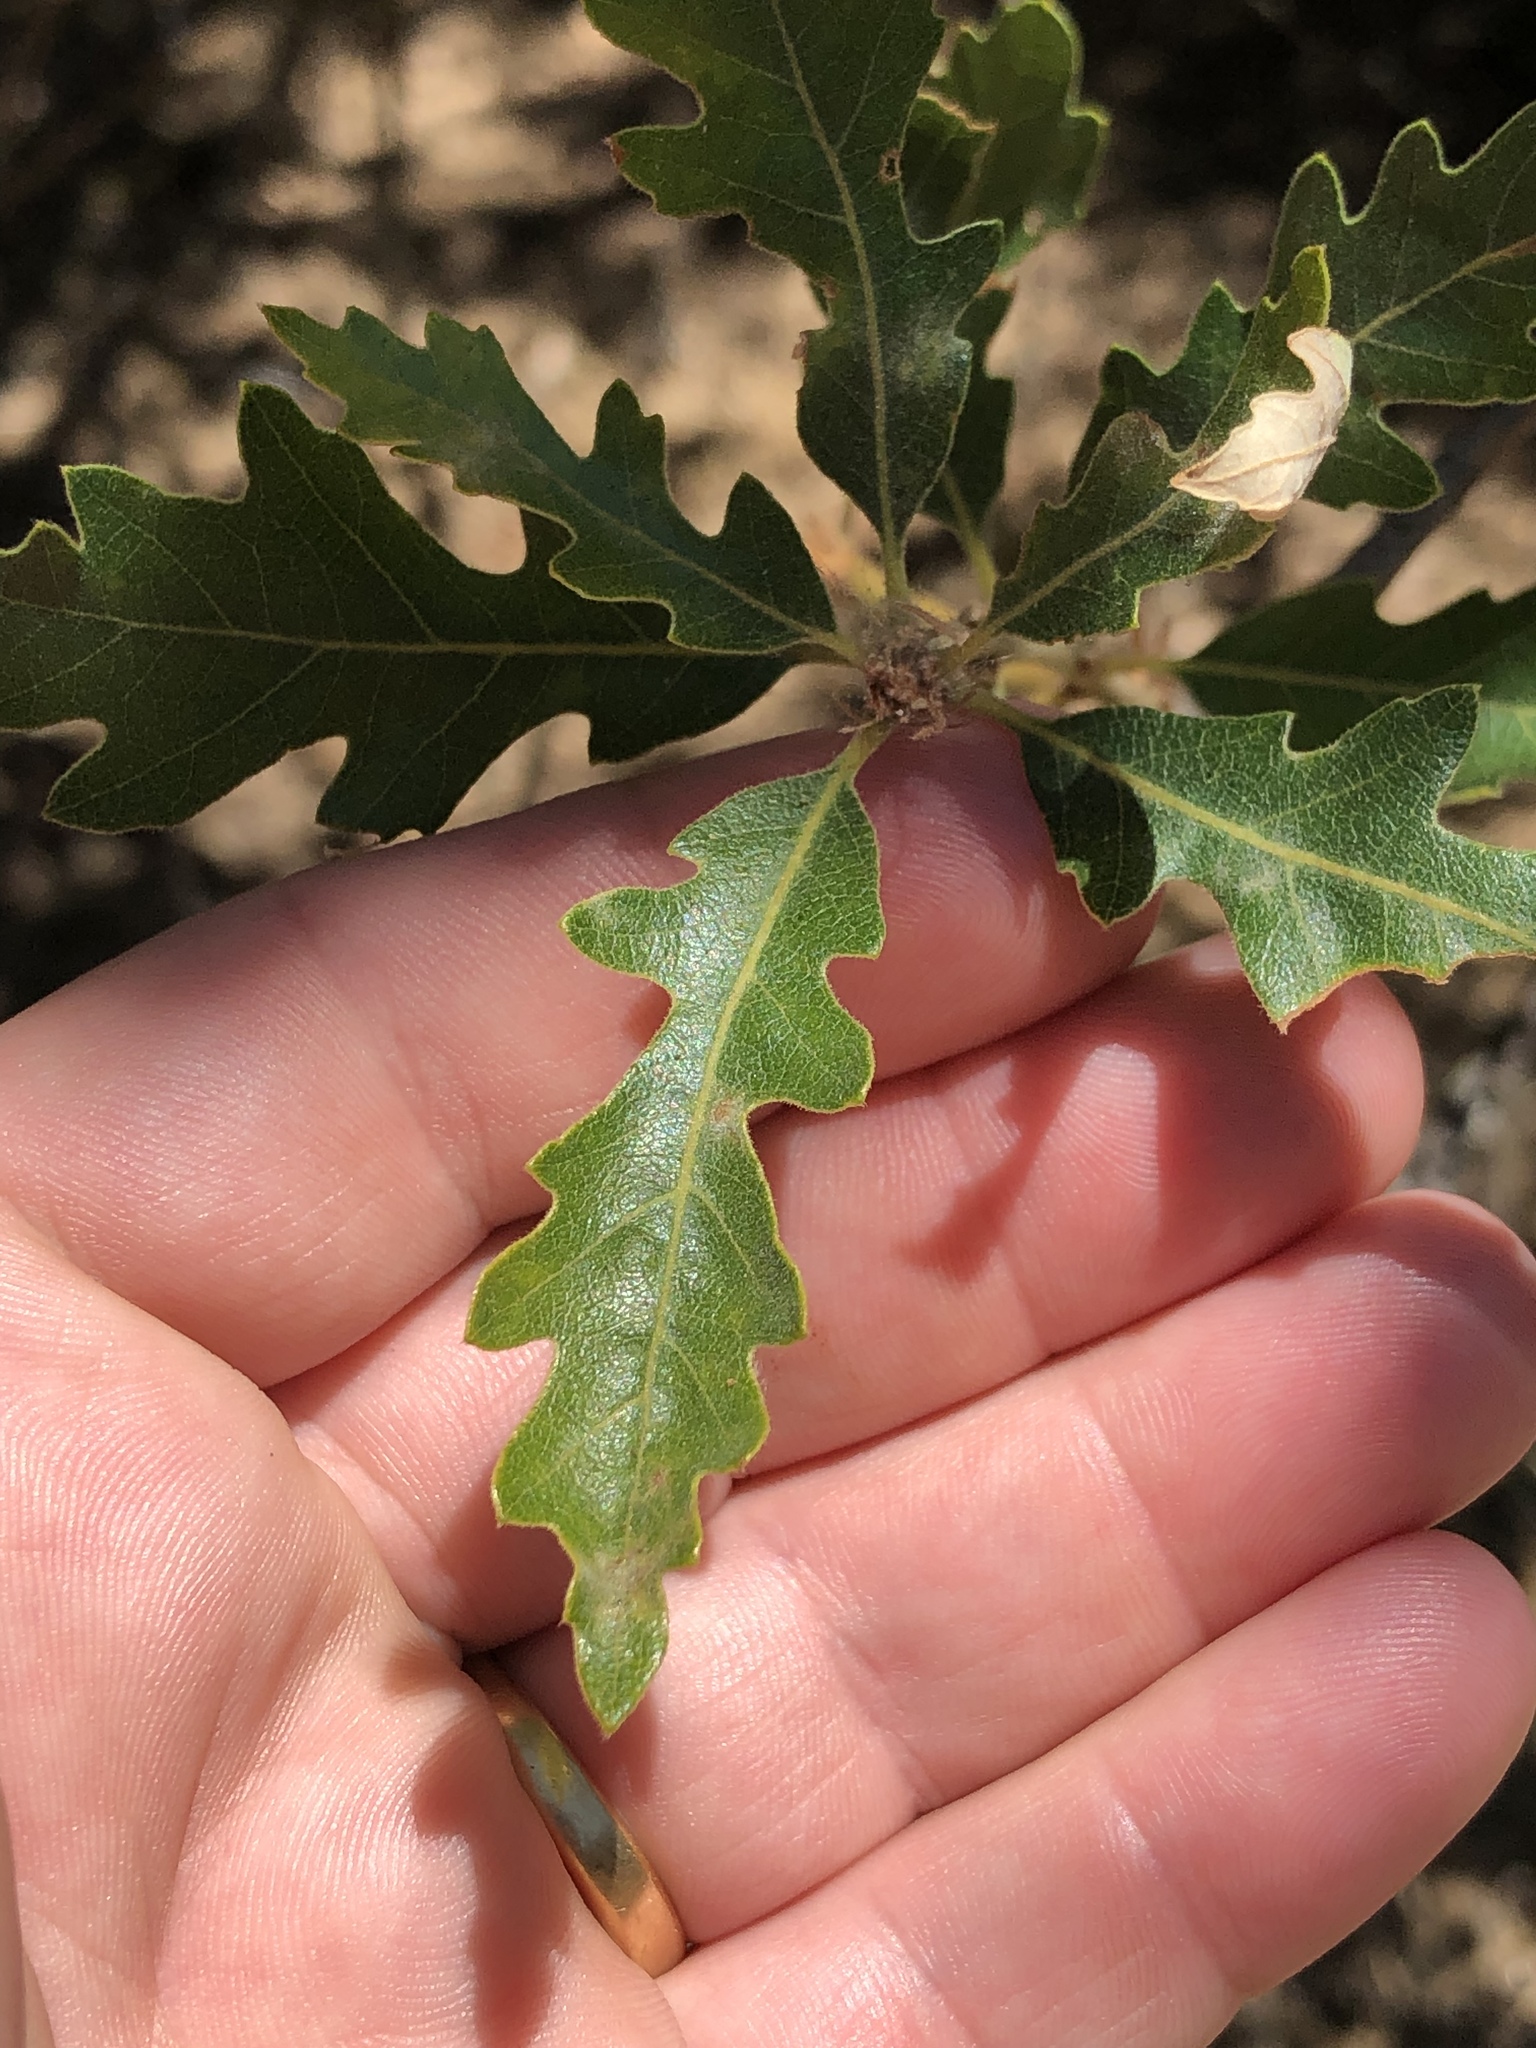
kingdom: Plantae
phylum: Tracheophyta
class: Magnoliopsida
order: Fagales
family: Fagaceae
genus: Quercus
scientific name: Quercus lobata
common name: Valley oak
